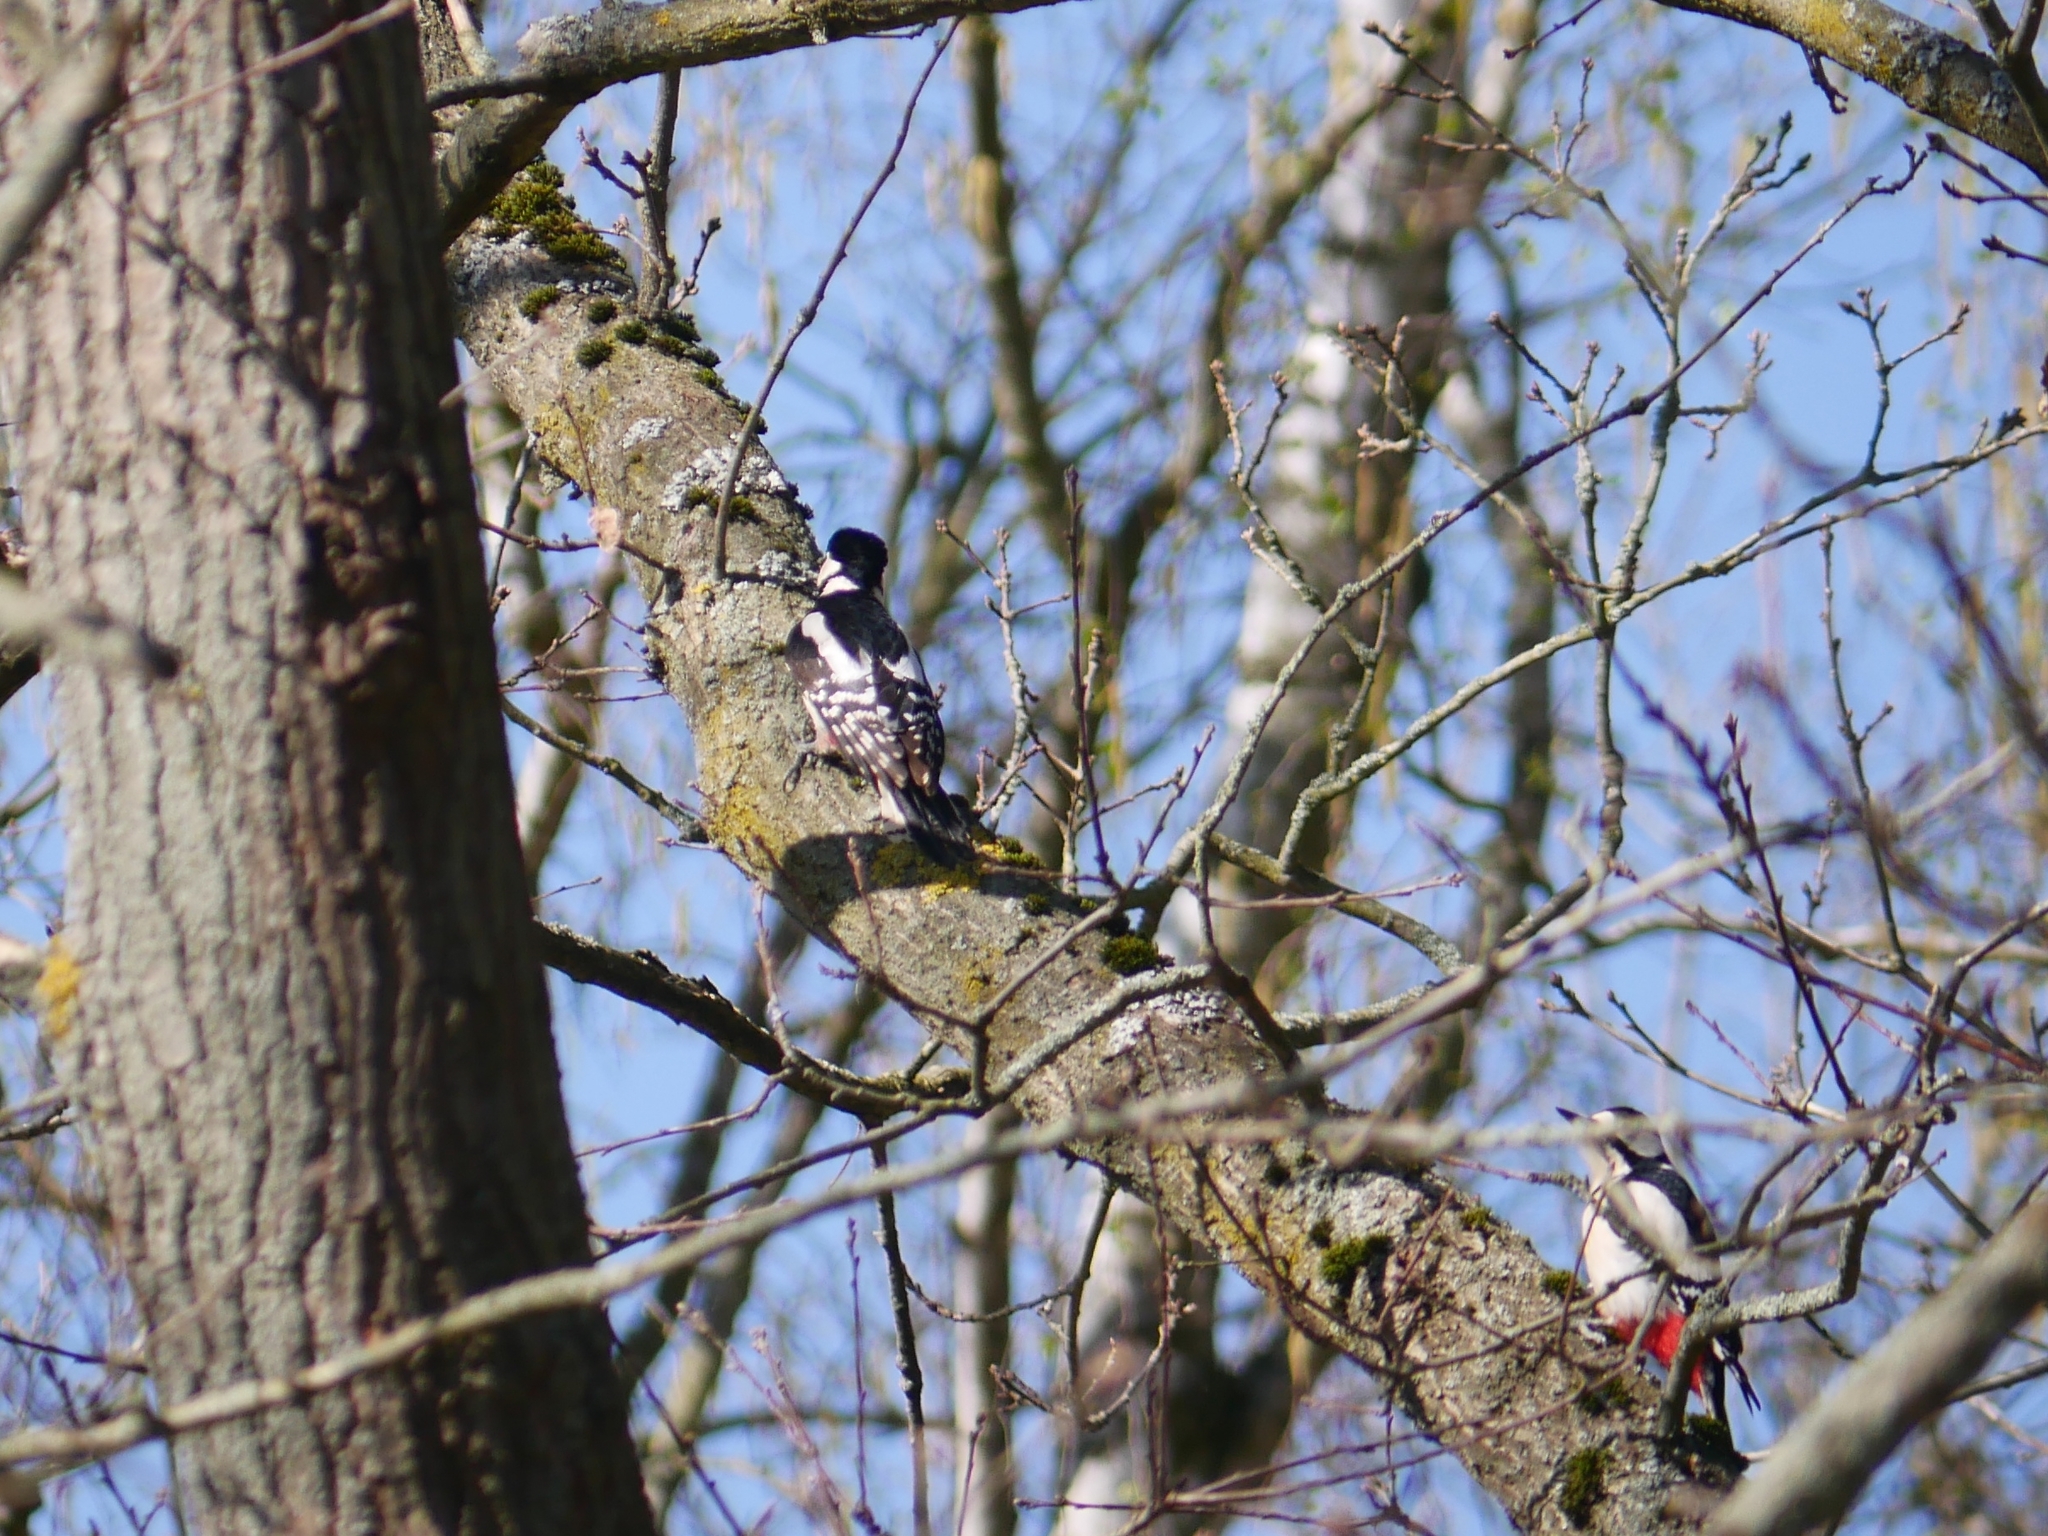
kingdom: Animalia
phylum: Chordata
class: Aves
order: Piciformes
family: Picidae
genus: Dendrocopos
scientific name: Dendrocopos major
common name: Great spotted woodpecker
